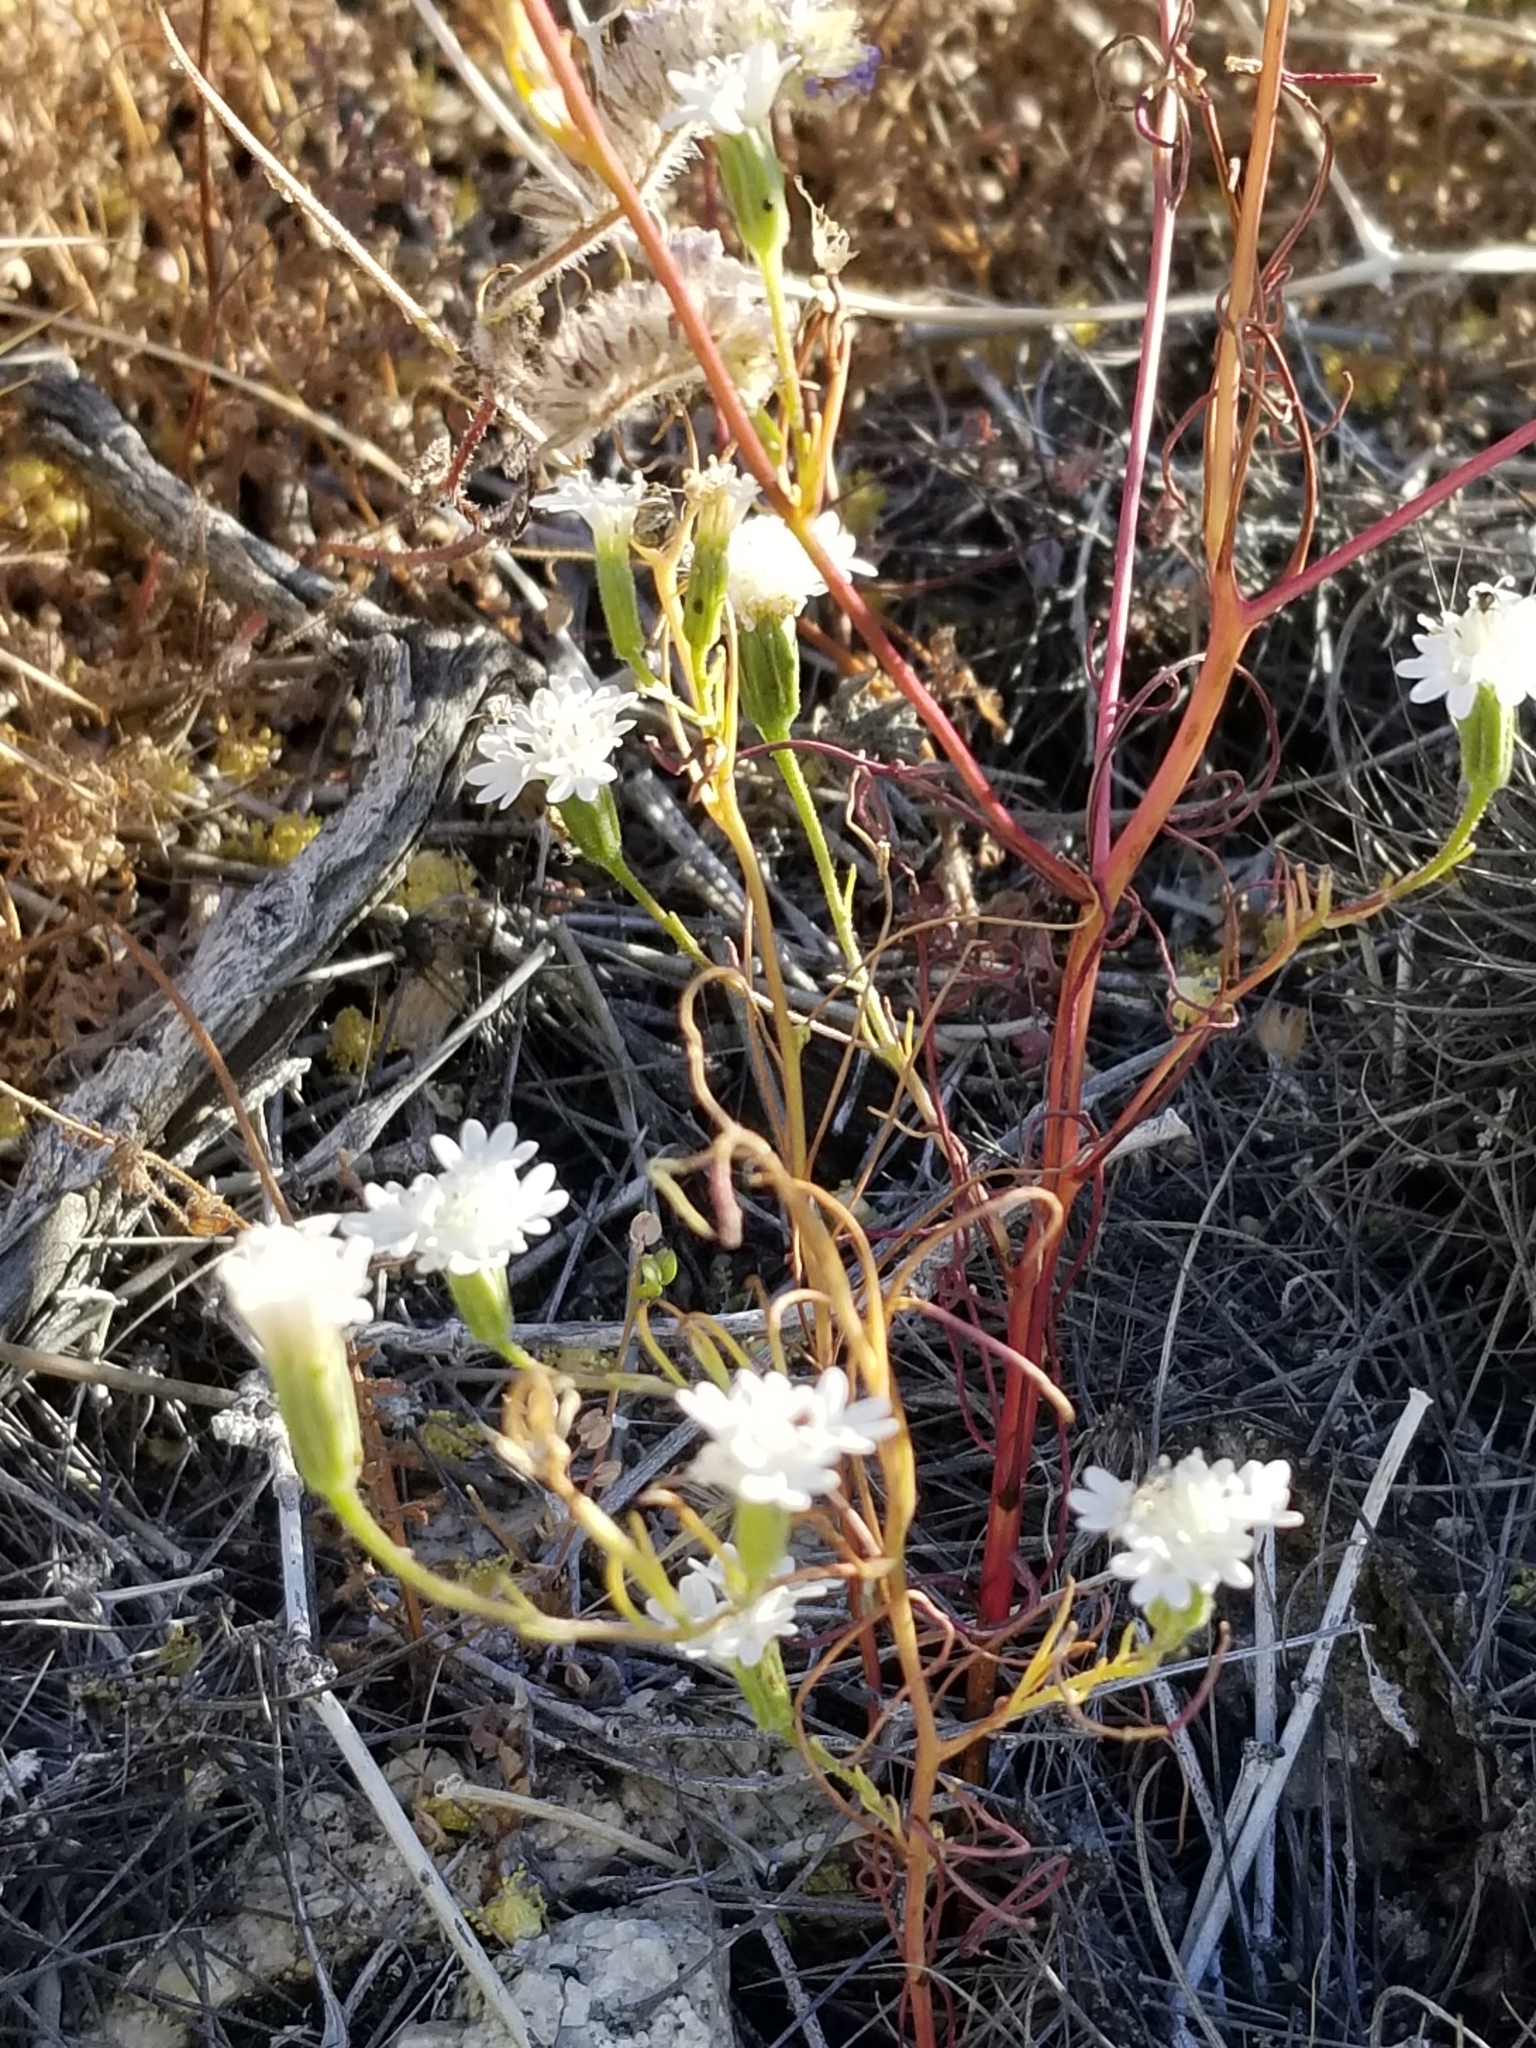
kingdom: Plantae
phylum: Tracheophyta
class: Magnoliopsida
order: Asterales
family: Asteraceae
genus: Chaenactis
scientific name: Chaenactis fremontii
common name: Fremont pincushion
